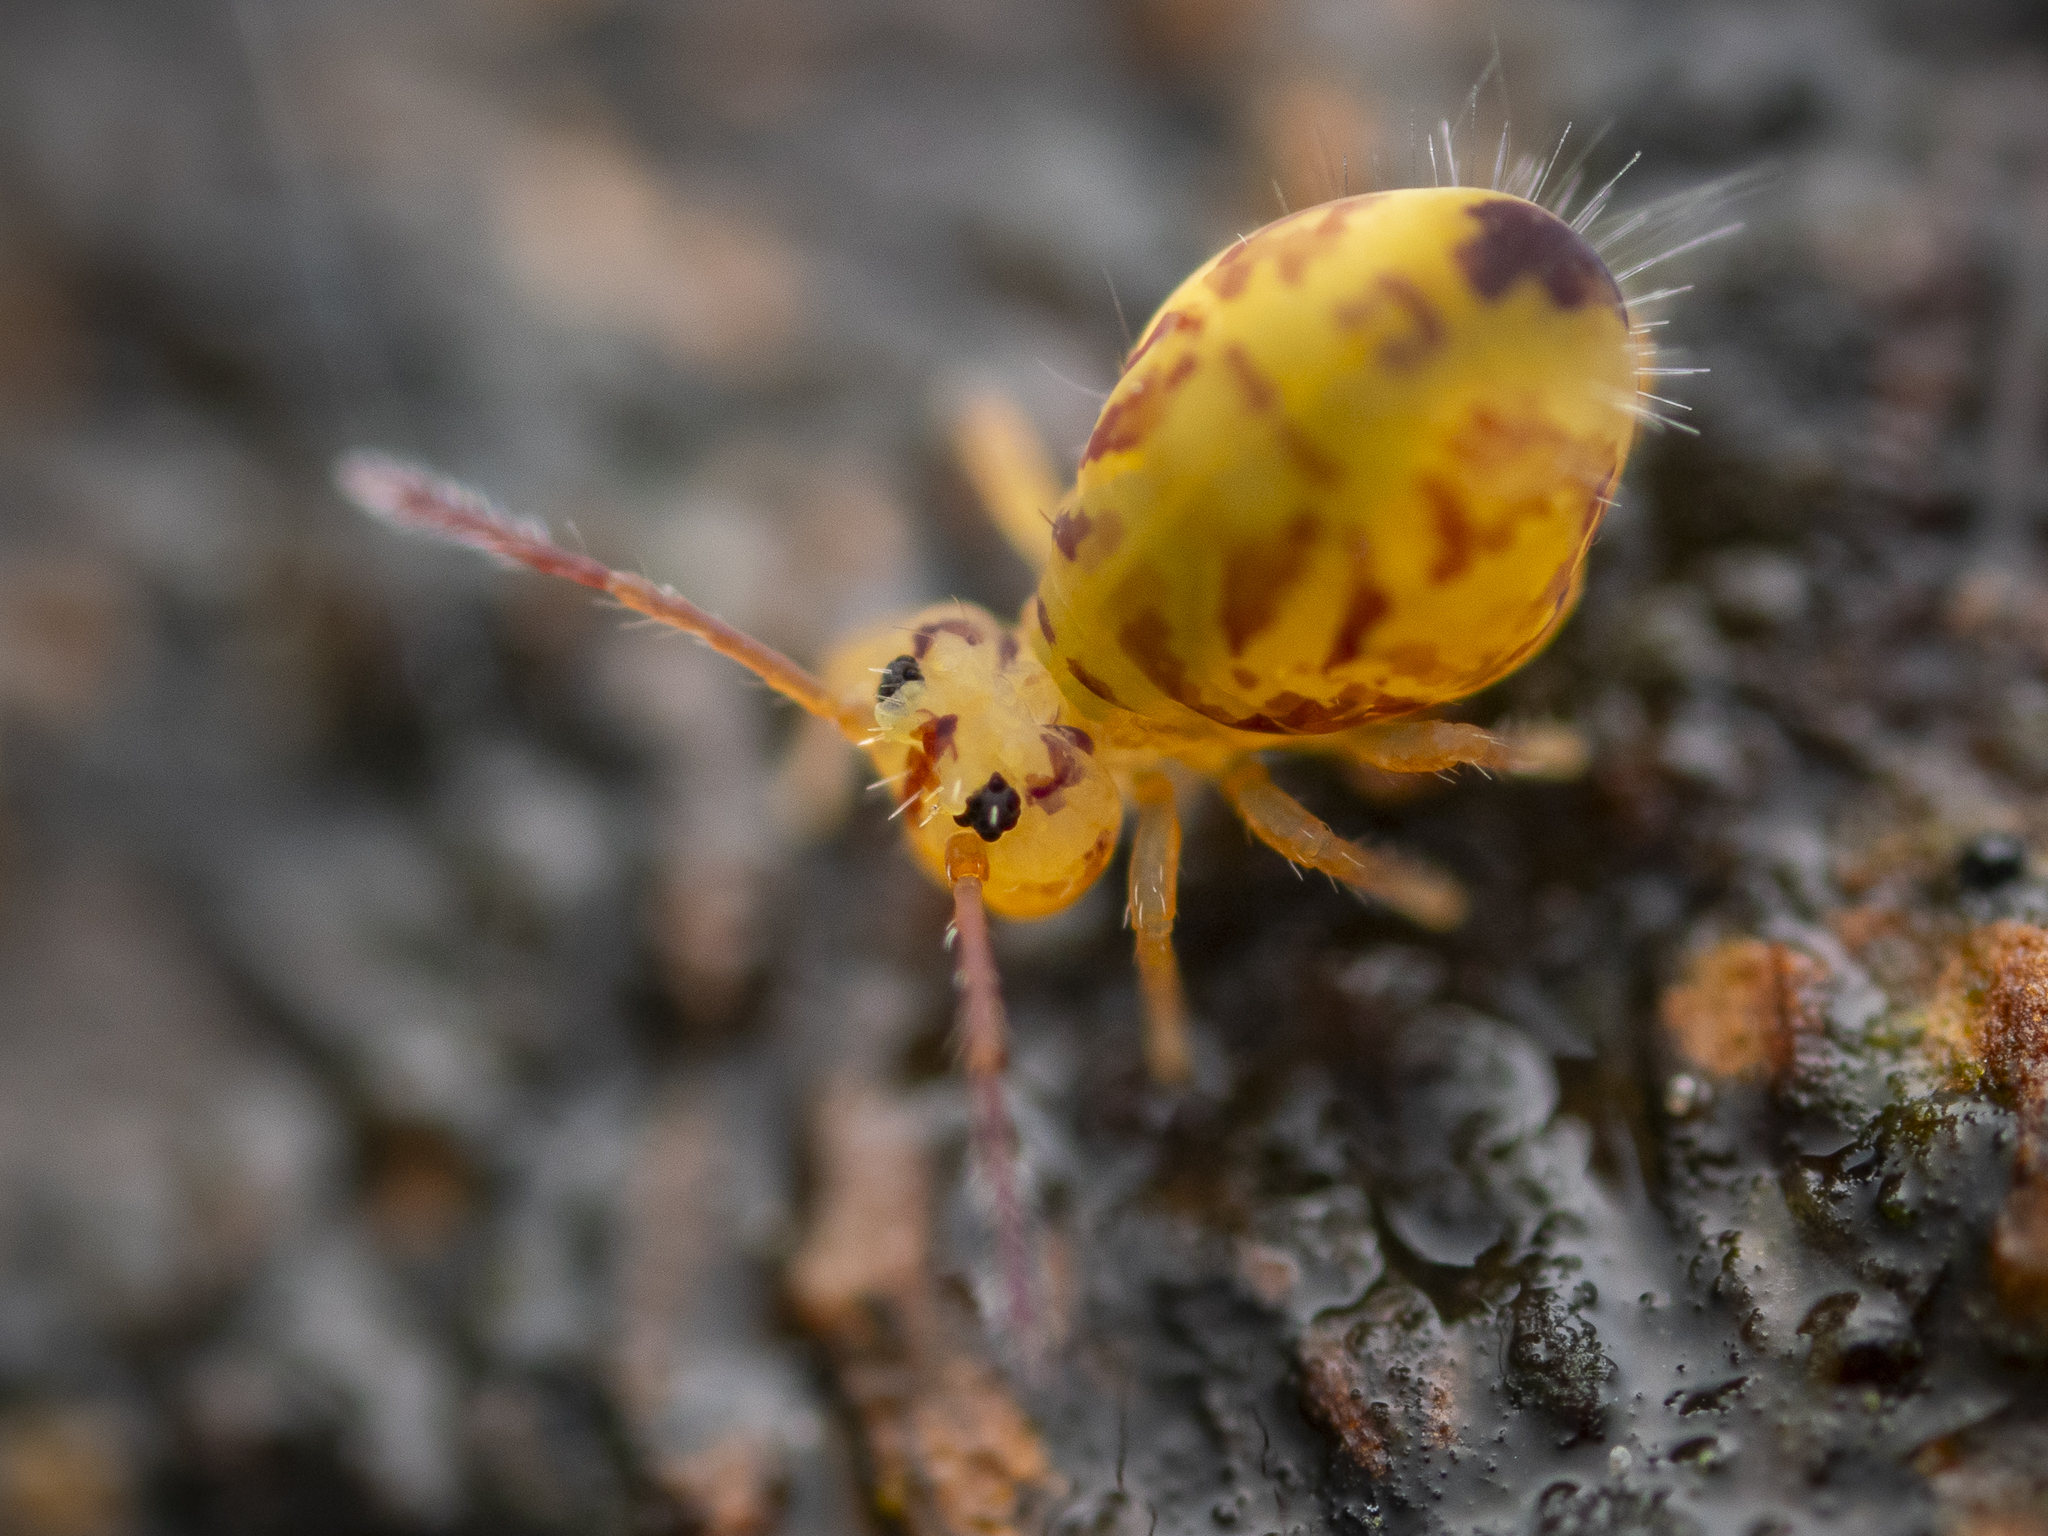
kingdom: Animalia
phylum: Arthropoda
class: Collembola
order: Symphypleona
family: Dicyrtomidae
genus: Dicyrtomina
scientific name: Dicyrtomina ornata
